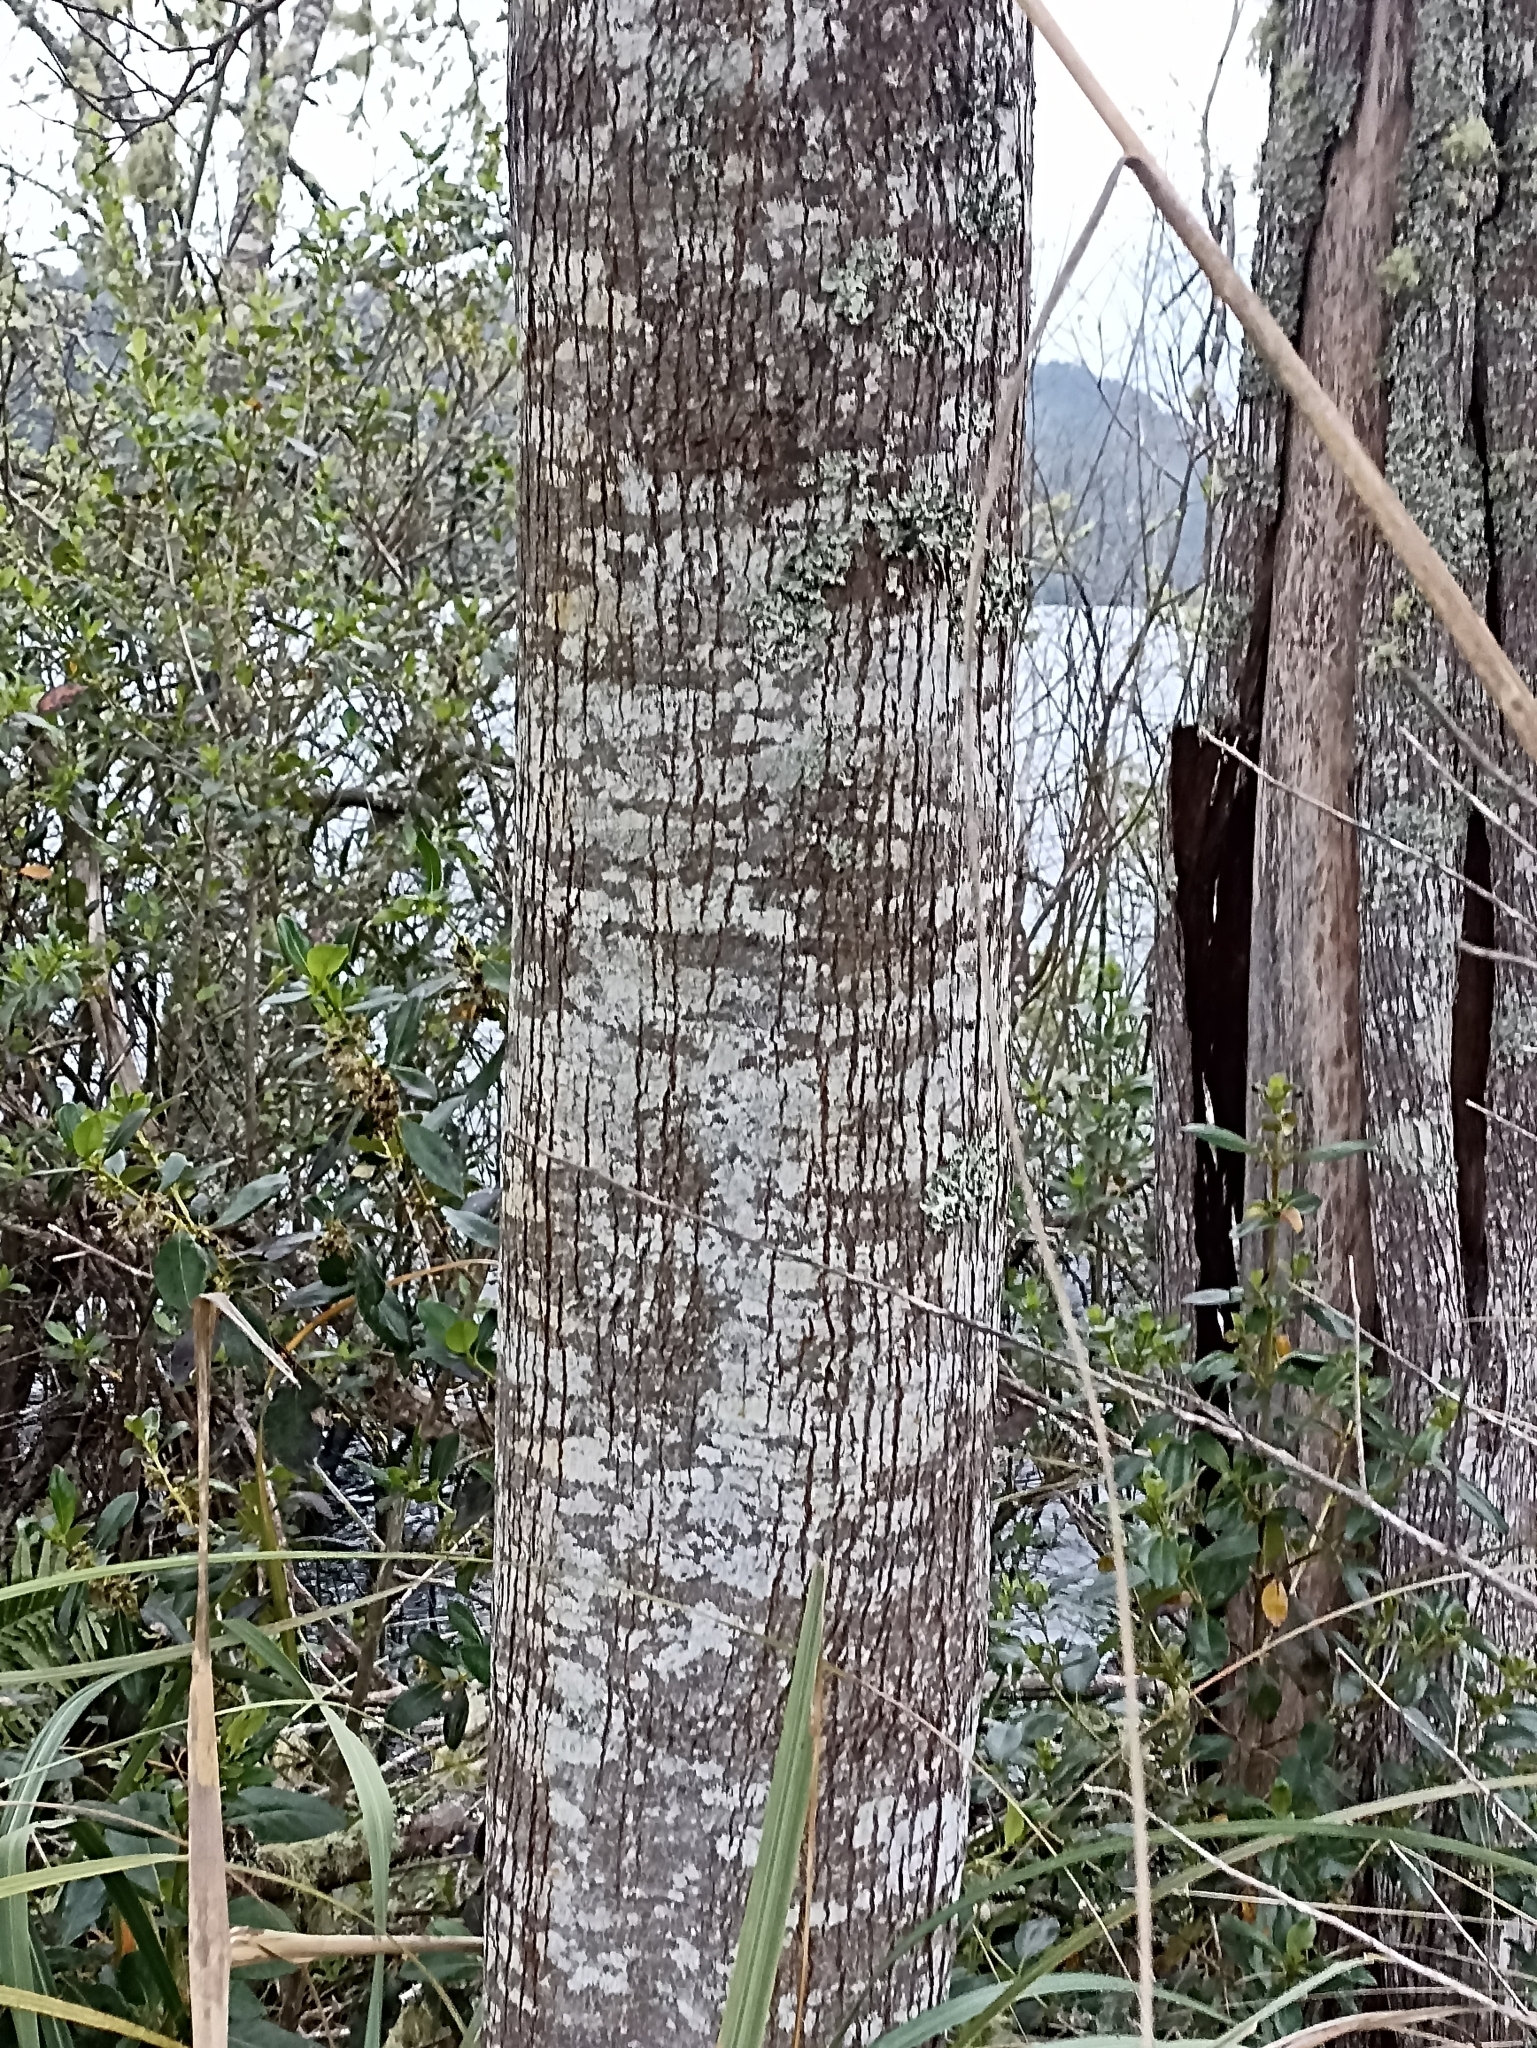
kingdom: Plantae
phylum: Tracheophyta
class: Magnoliopsida
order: Fabales
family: Fabaceae
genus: Acacia
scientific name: Acacia melanoxylon
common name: Blackwood
